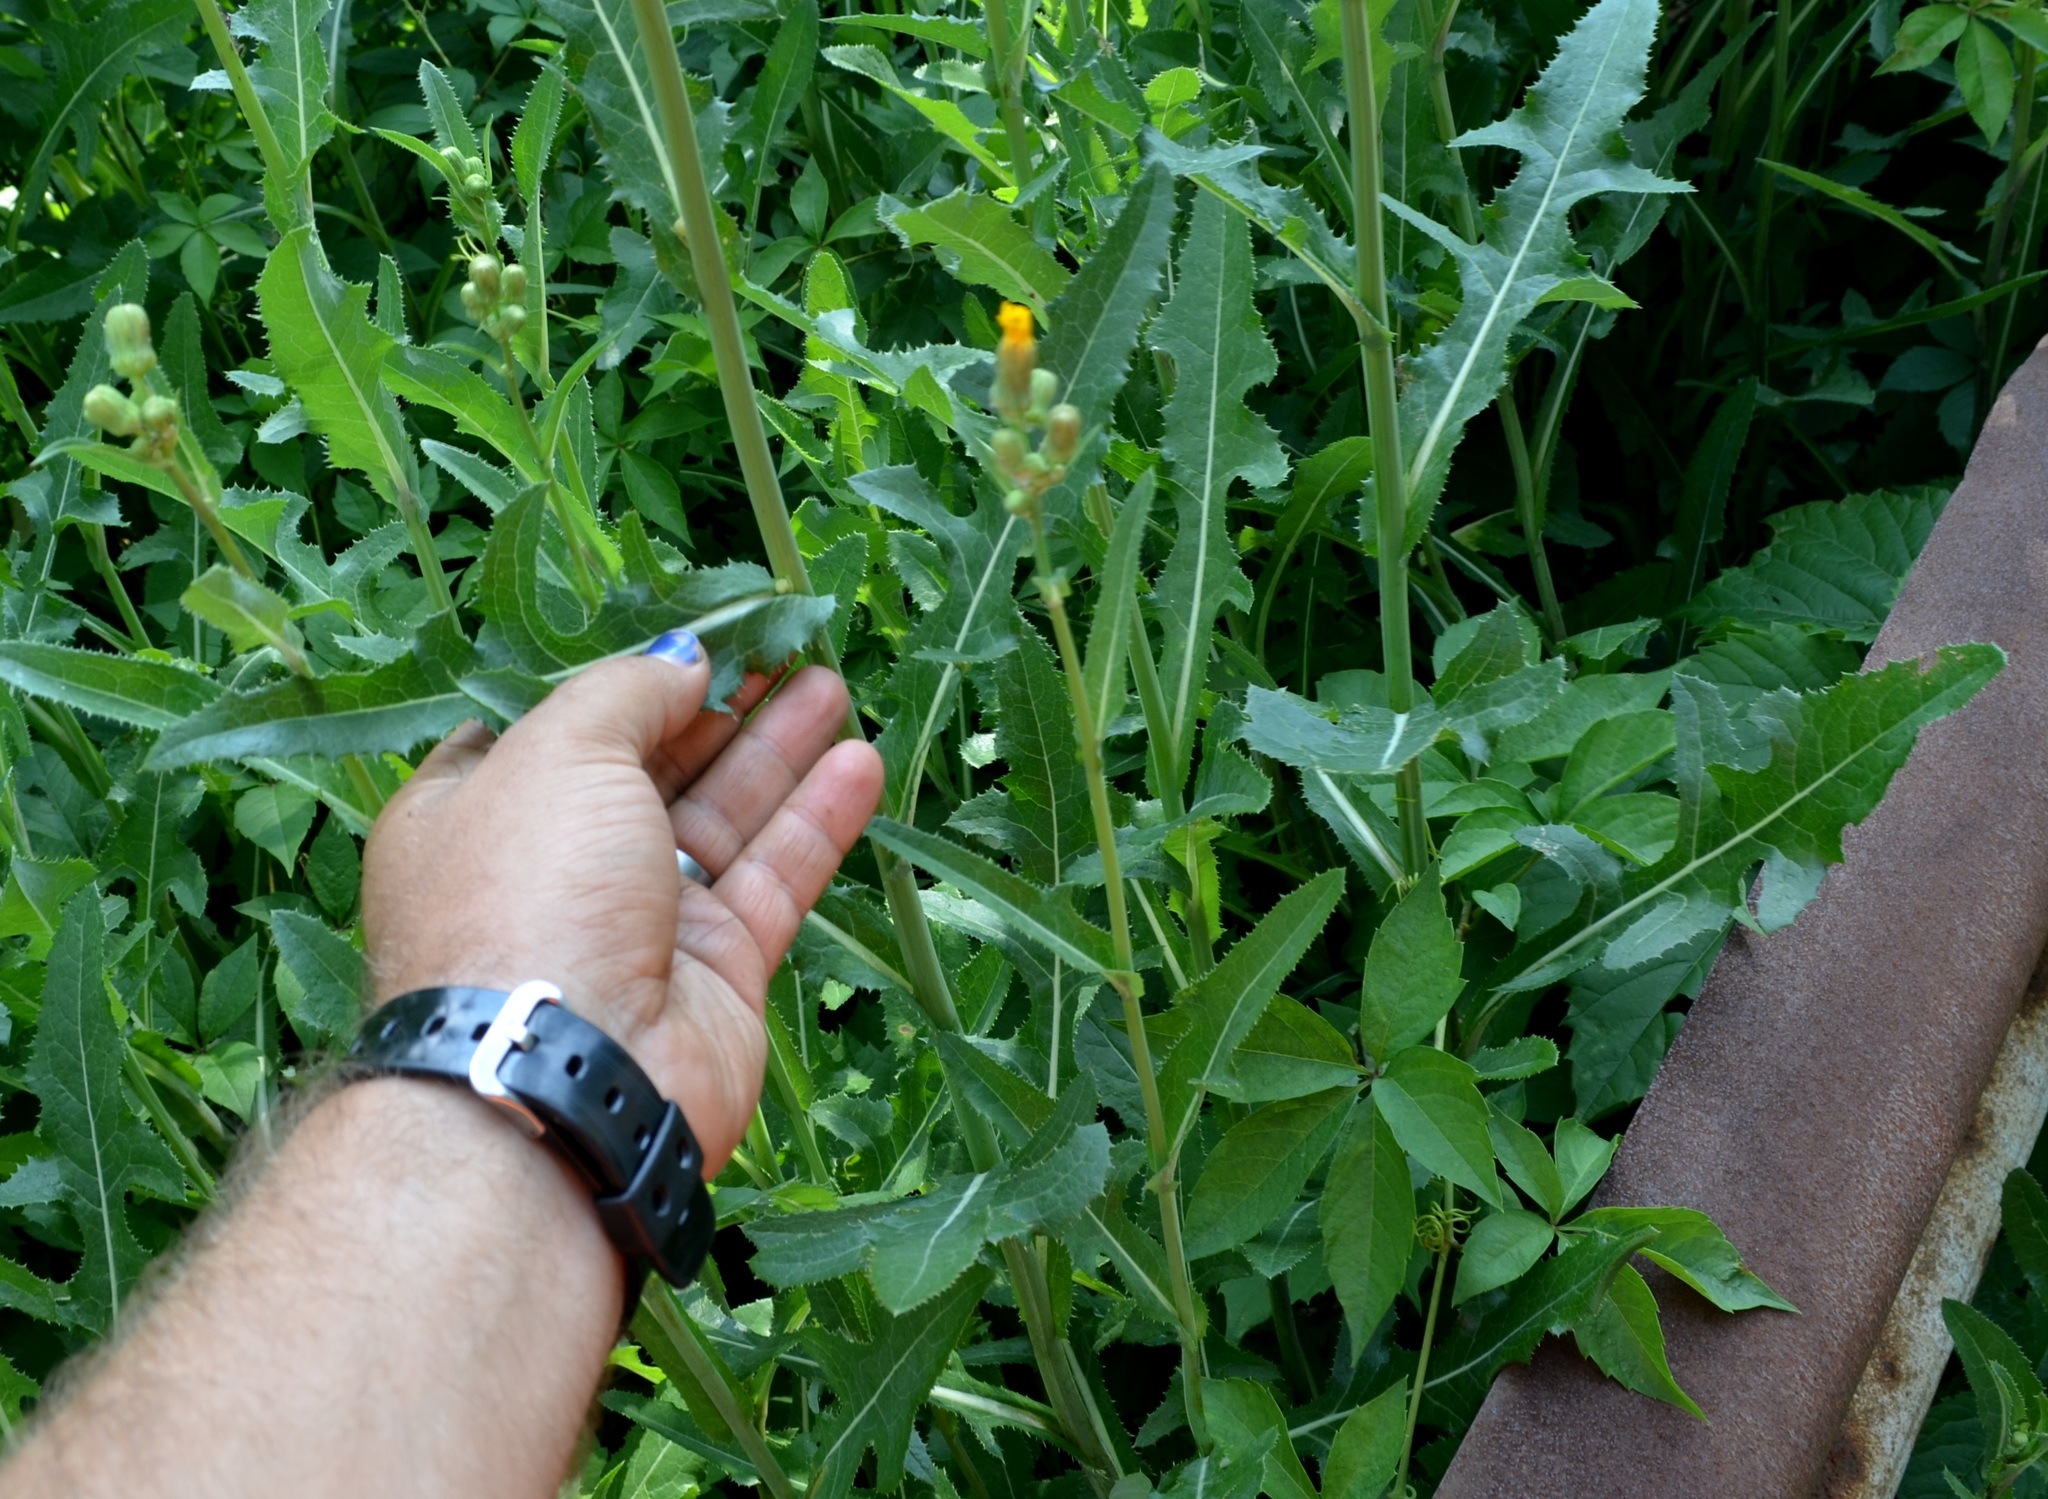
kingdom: Plantae
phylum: Tracheophyta
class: Magnoliopsida
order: Asterales
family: Asteraceae
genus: Sonchus
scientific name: Sonchus arvensis
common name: Perennial sow-thistle
